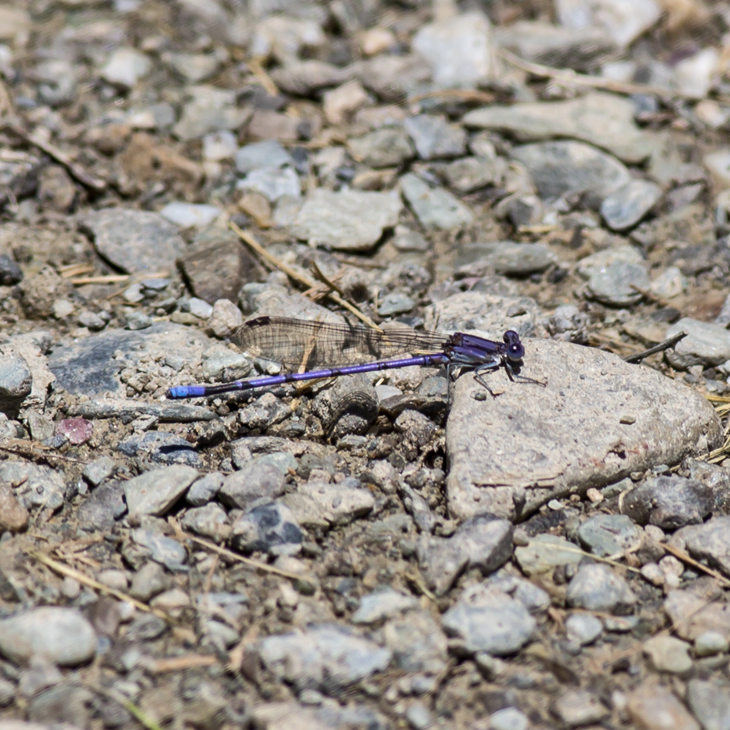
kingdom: Animalia
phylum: Arthropoda
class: Insecta
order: Odonata
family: Coenagrionidae
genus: Argia
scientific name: Argia fumipennis
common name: Variable dancer
